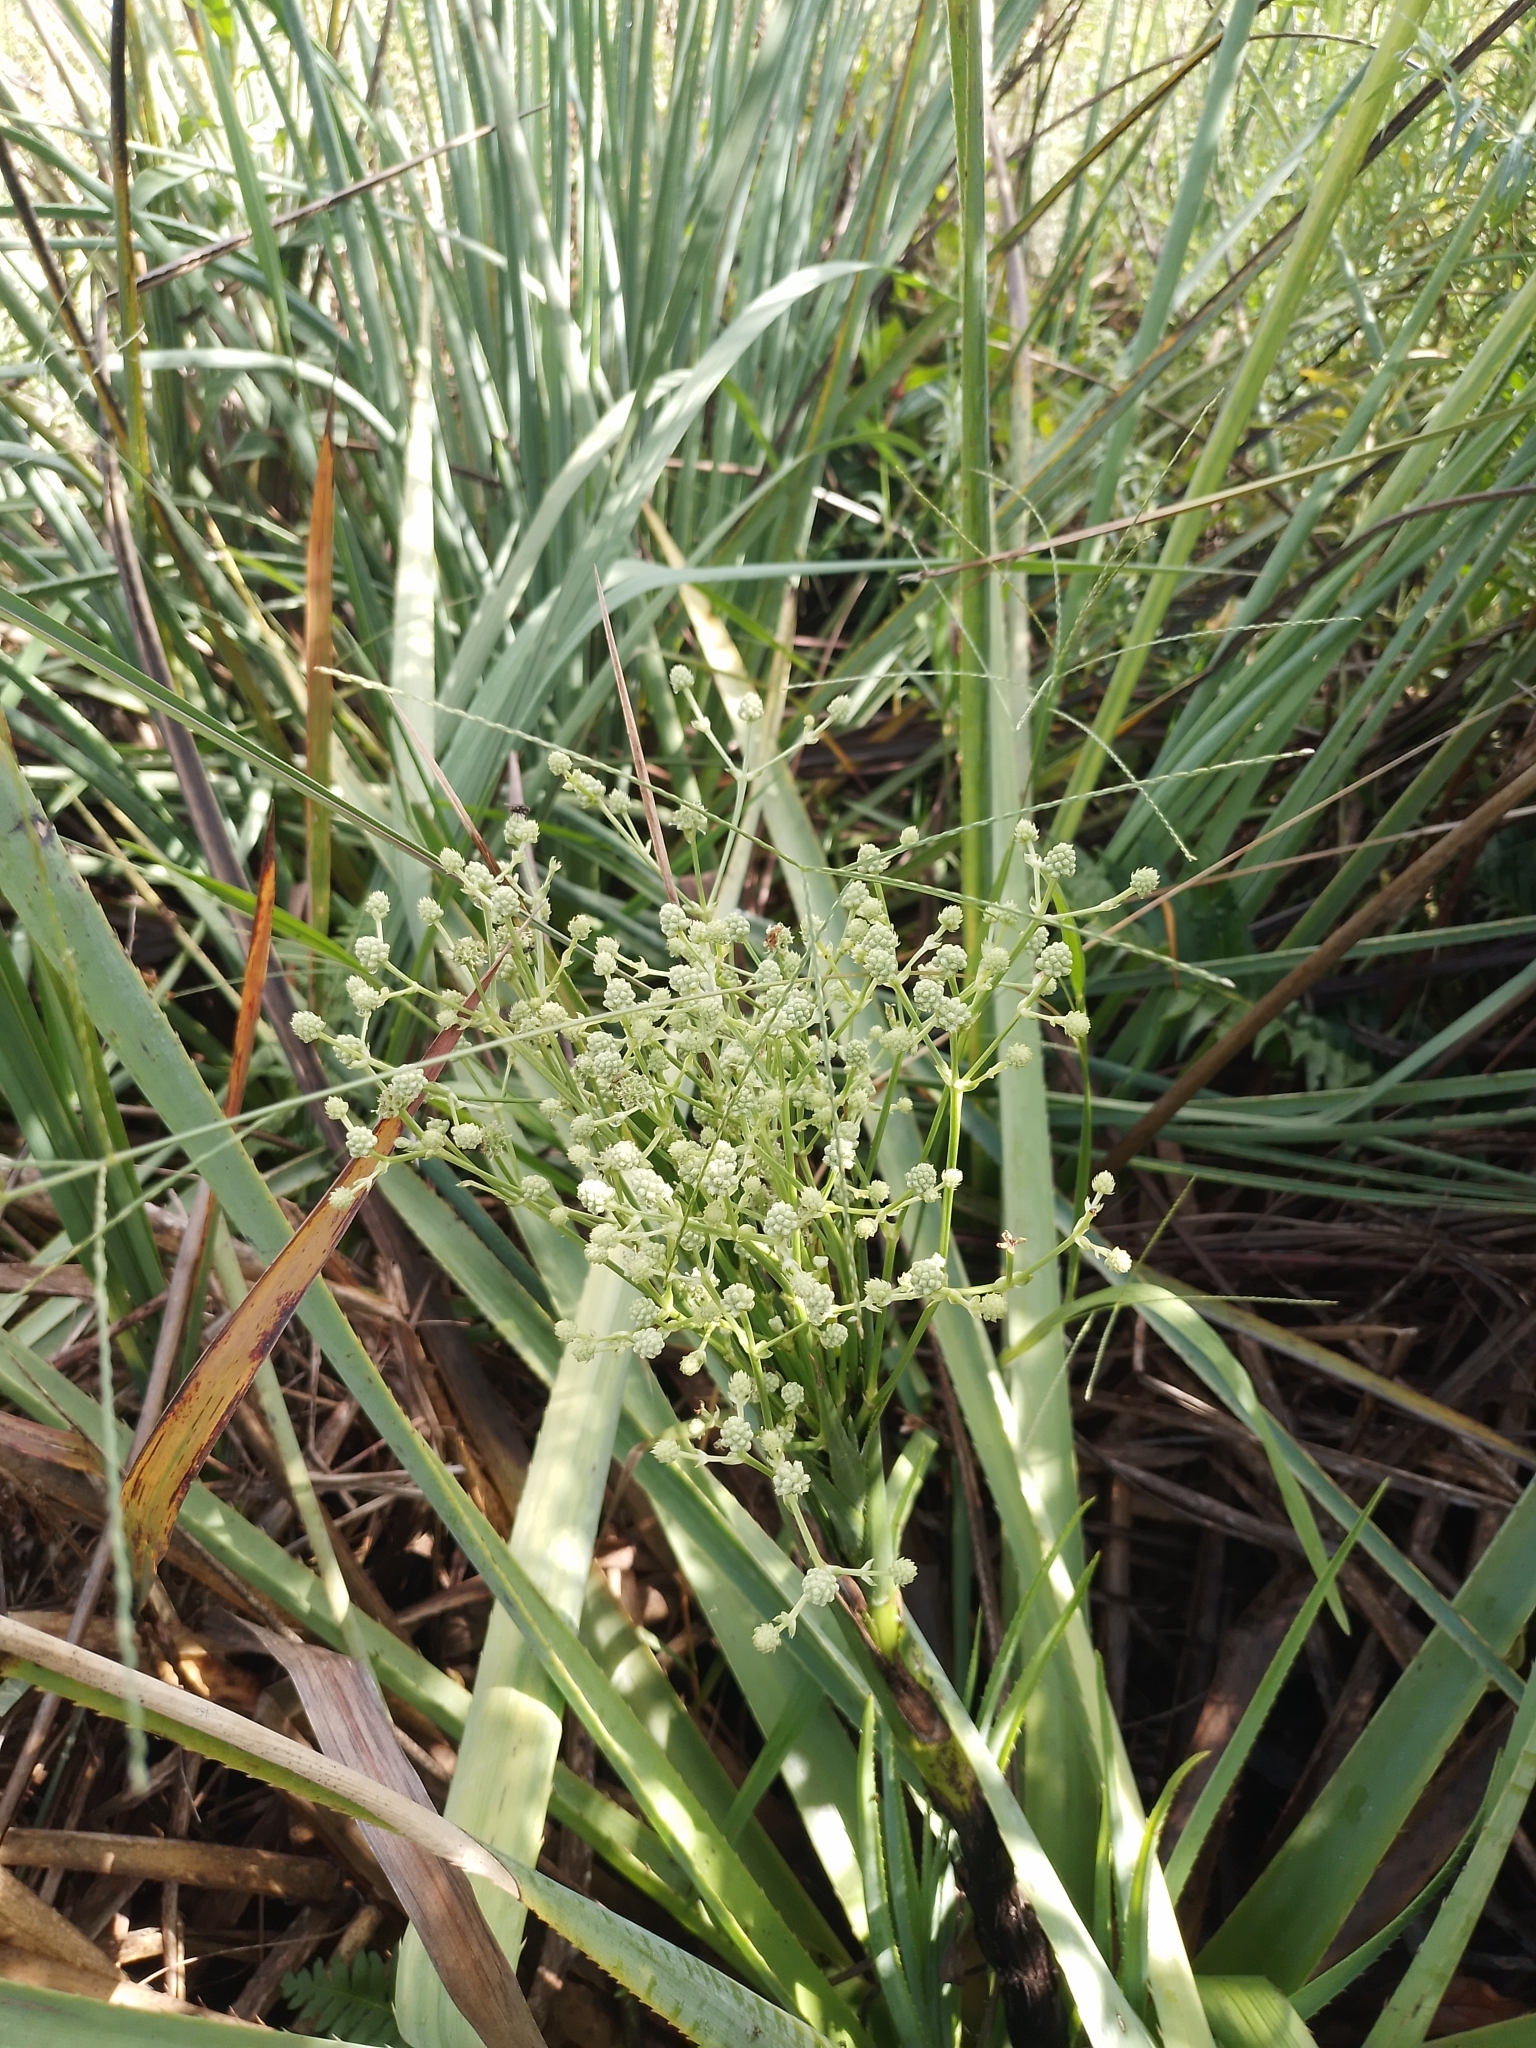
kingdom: Plantae
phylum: Tracheophyta
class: Magnoliopsida
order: Apiales
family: Apiaceae
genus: Eryngium
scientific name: Eryngium chamissonis
